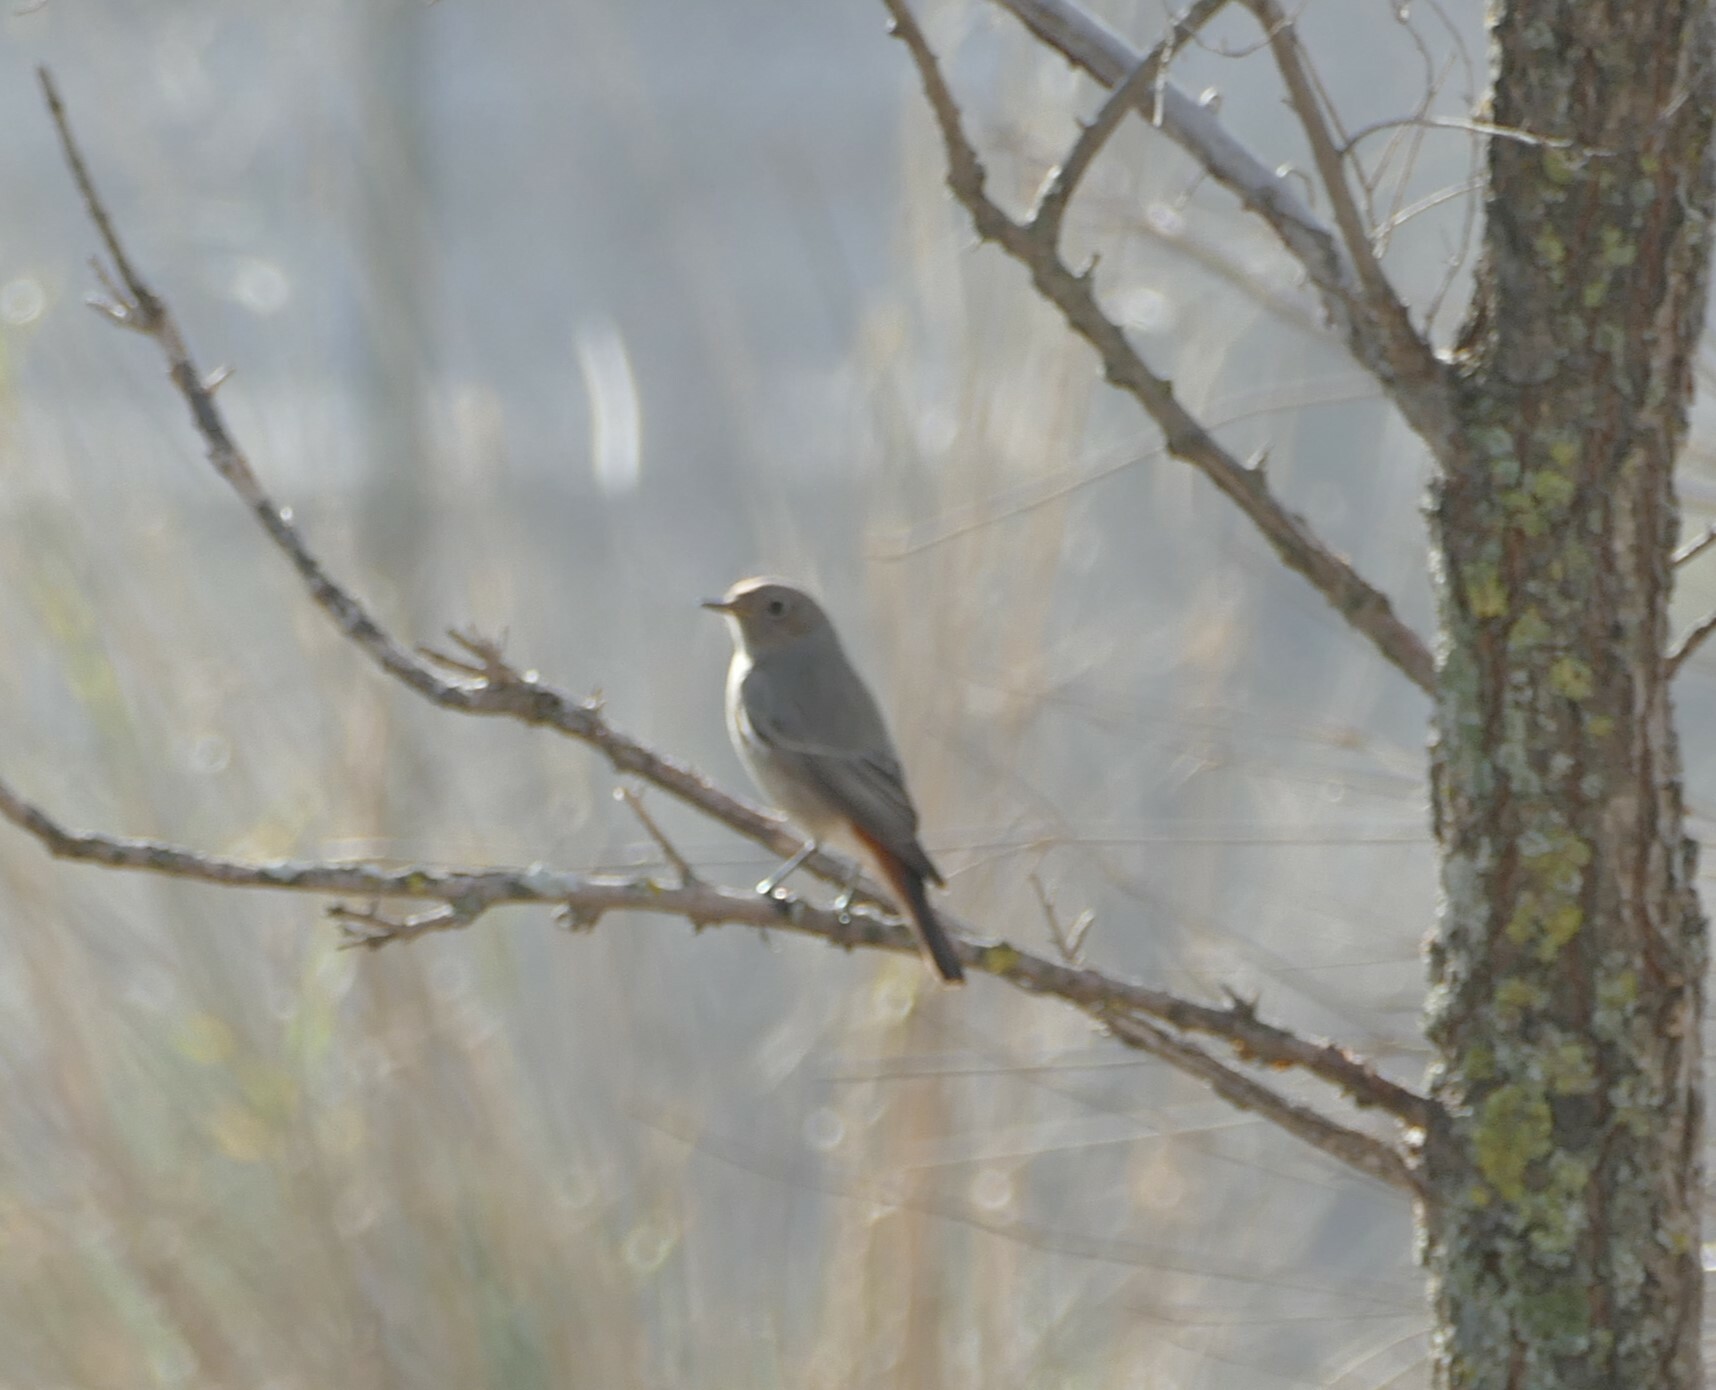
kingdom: Animalia
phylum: Chordata
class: Aves
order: Passeriformes
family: Muscicapidae
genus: Phoenicurus
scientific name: Phoenicurus ochruros
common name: Black redstart
